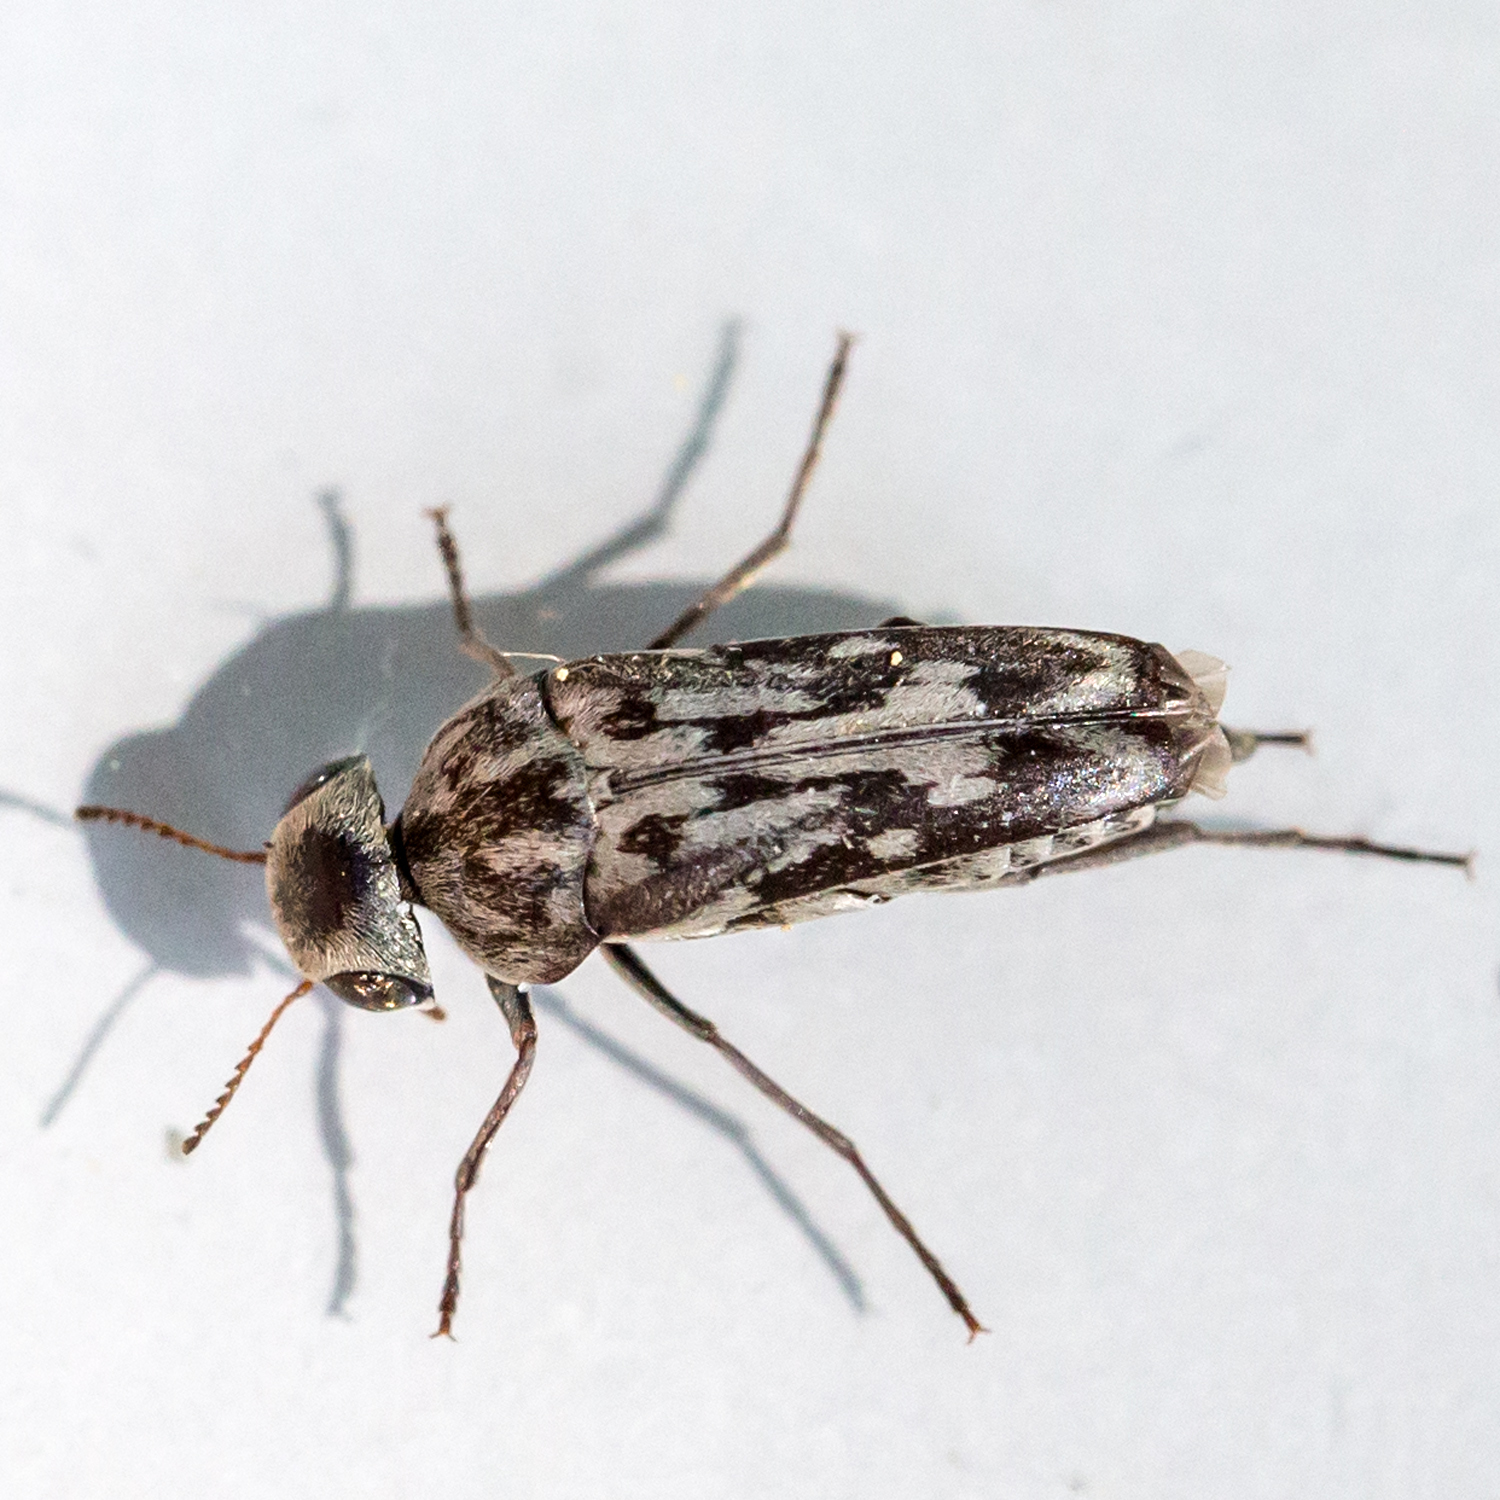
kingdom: Animalia
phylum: Arthropoda
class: Insecta
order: Coleoptera
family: Mordellidae
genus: Yakuhananomia
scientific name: Yakuhananomia bidentata
